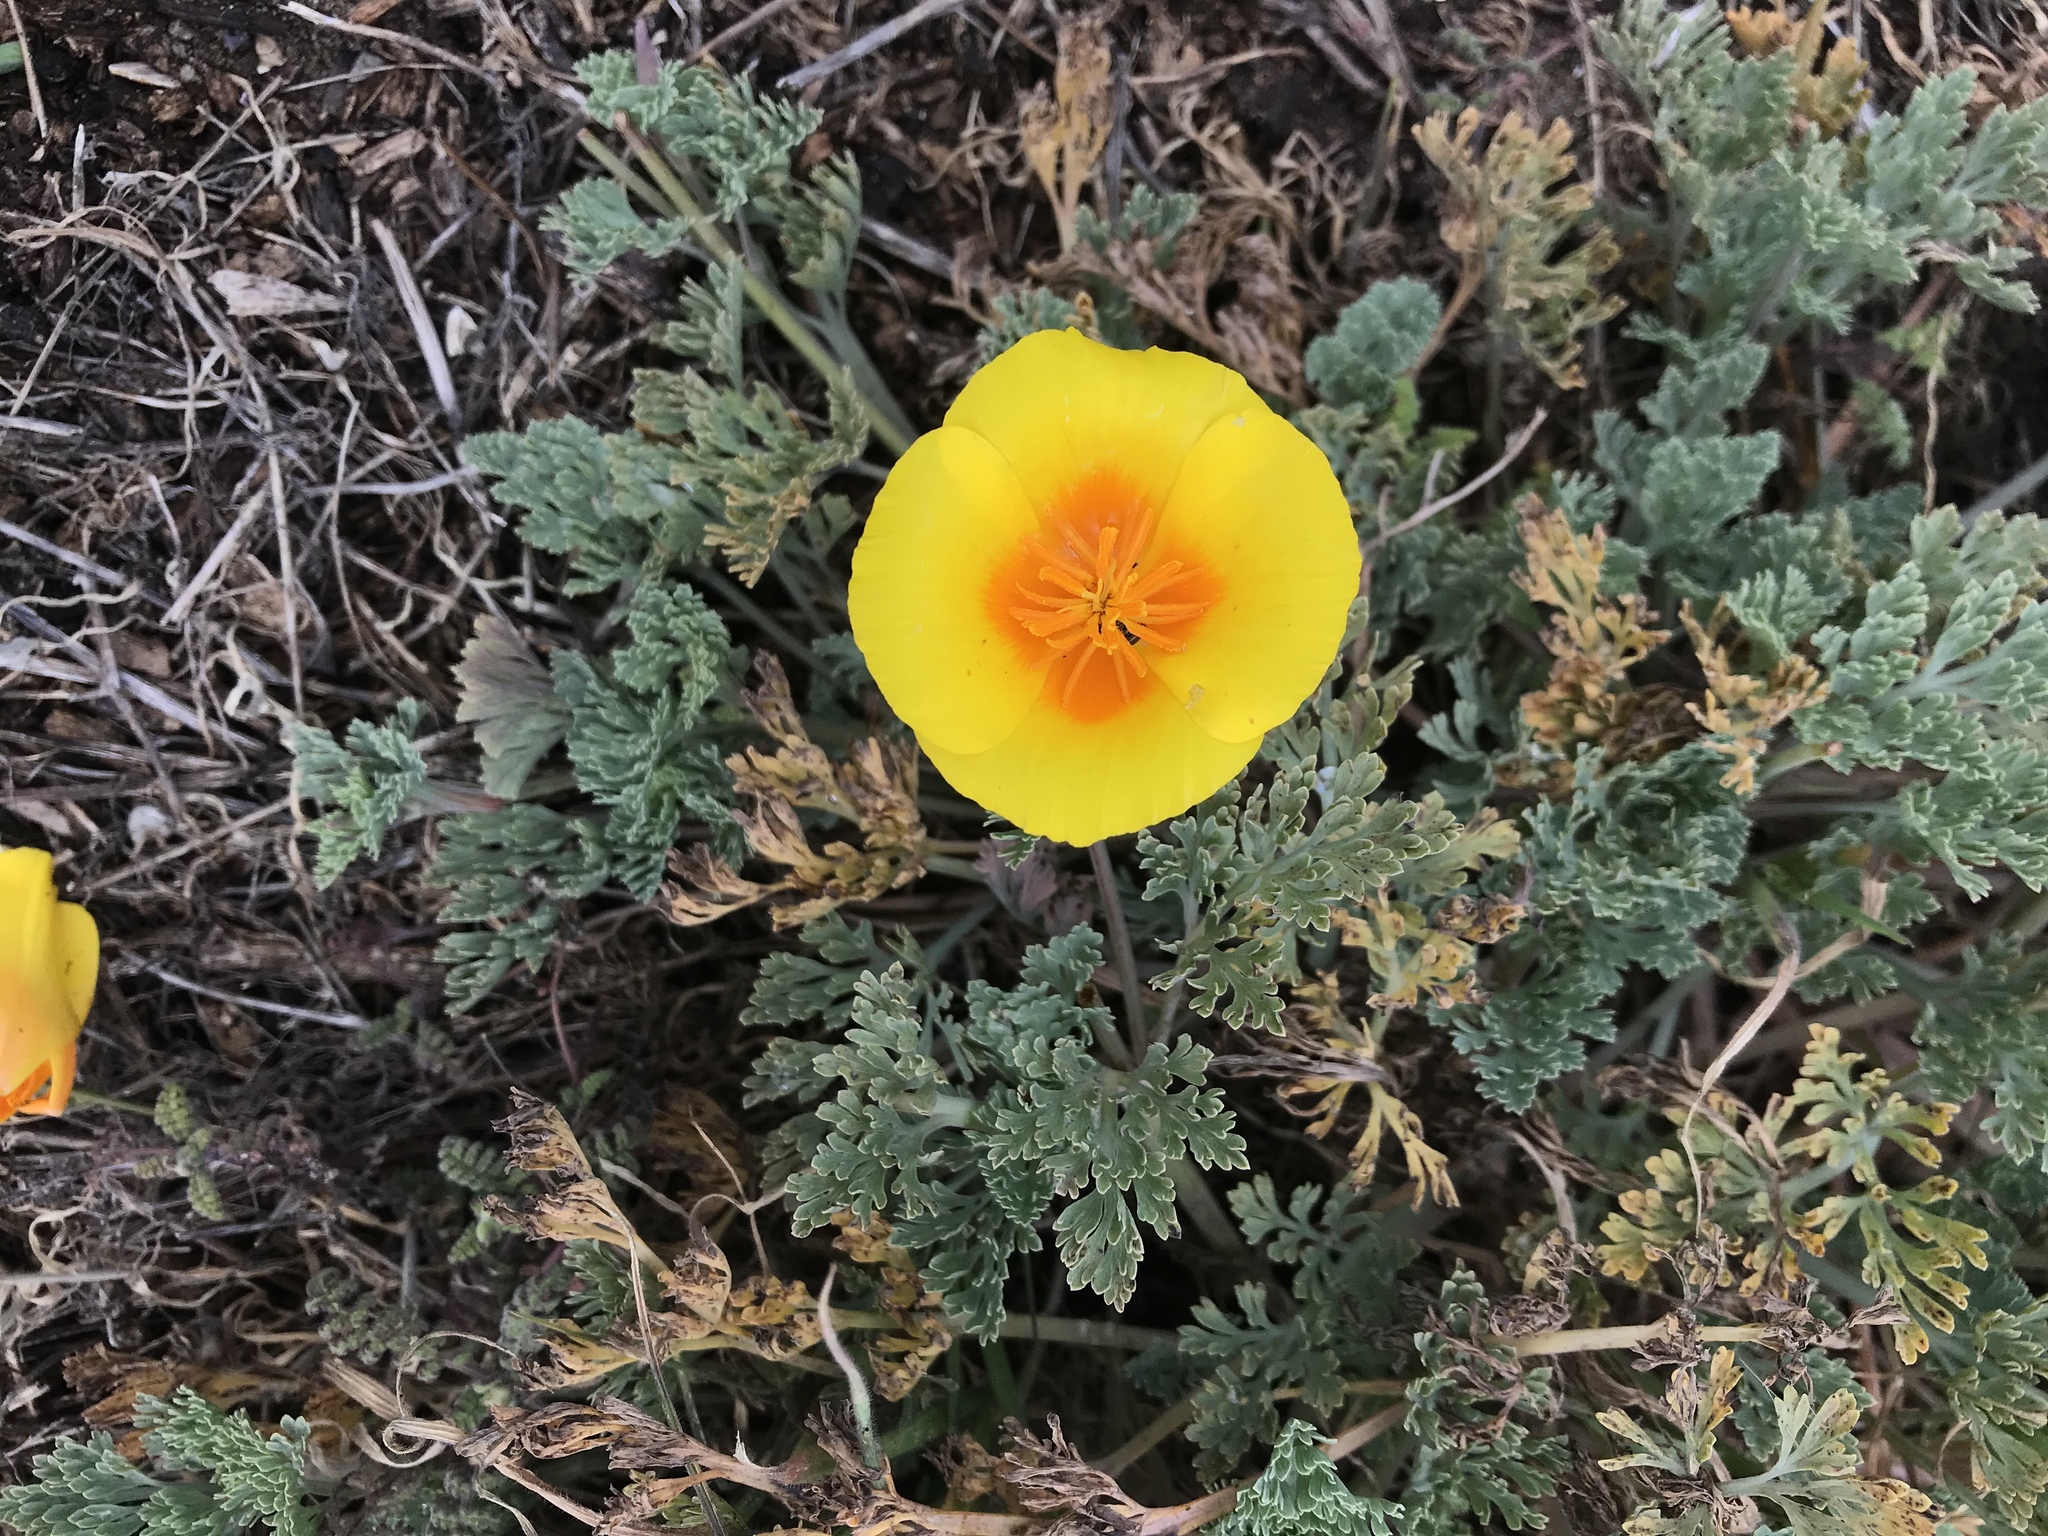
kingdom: Plantae
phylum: Tracheophyta
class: Magnoliopsida
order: Ranunculales
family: Papaveraceae
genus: Eschscholzia
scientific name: Eschscholzia californica
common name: California poppy
